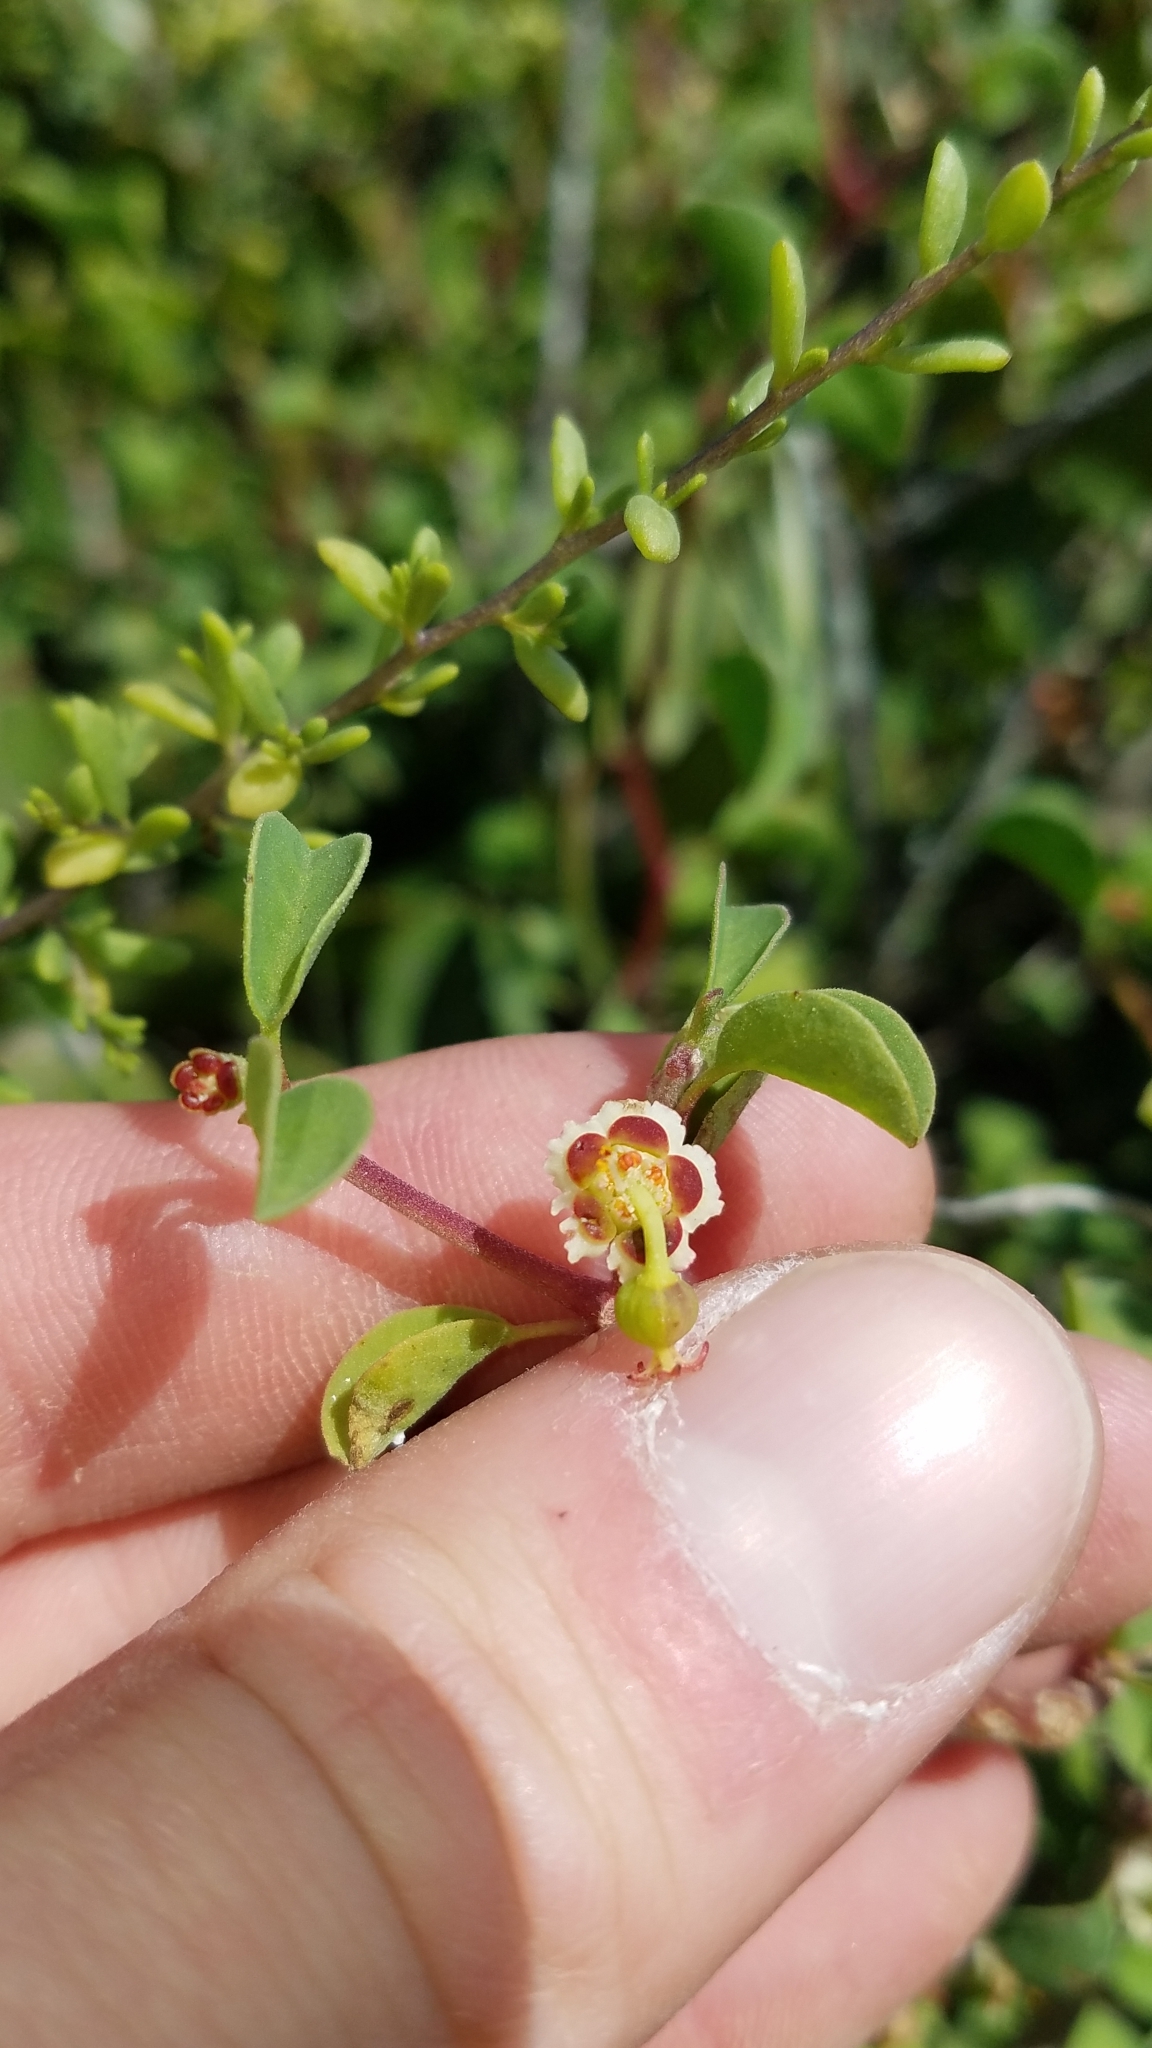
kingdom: Plantae
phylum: Tracheophyta
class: Magnoliopsida
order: Malpighiales
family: Euphorbiaceae
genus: Euphorbia
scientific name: Euphorbia misera
